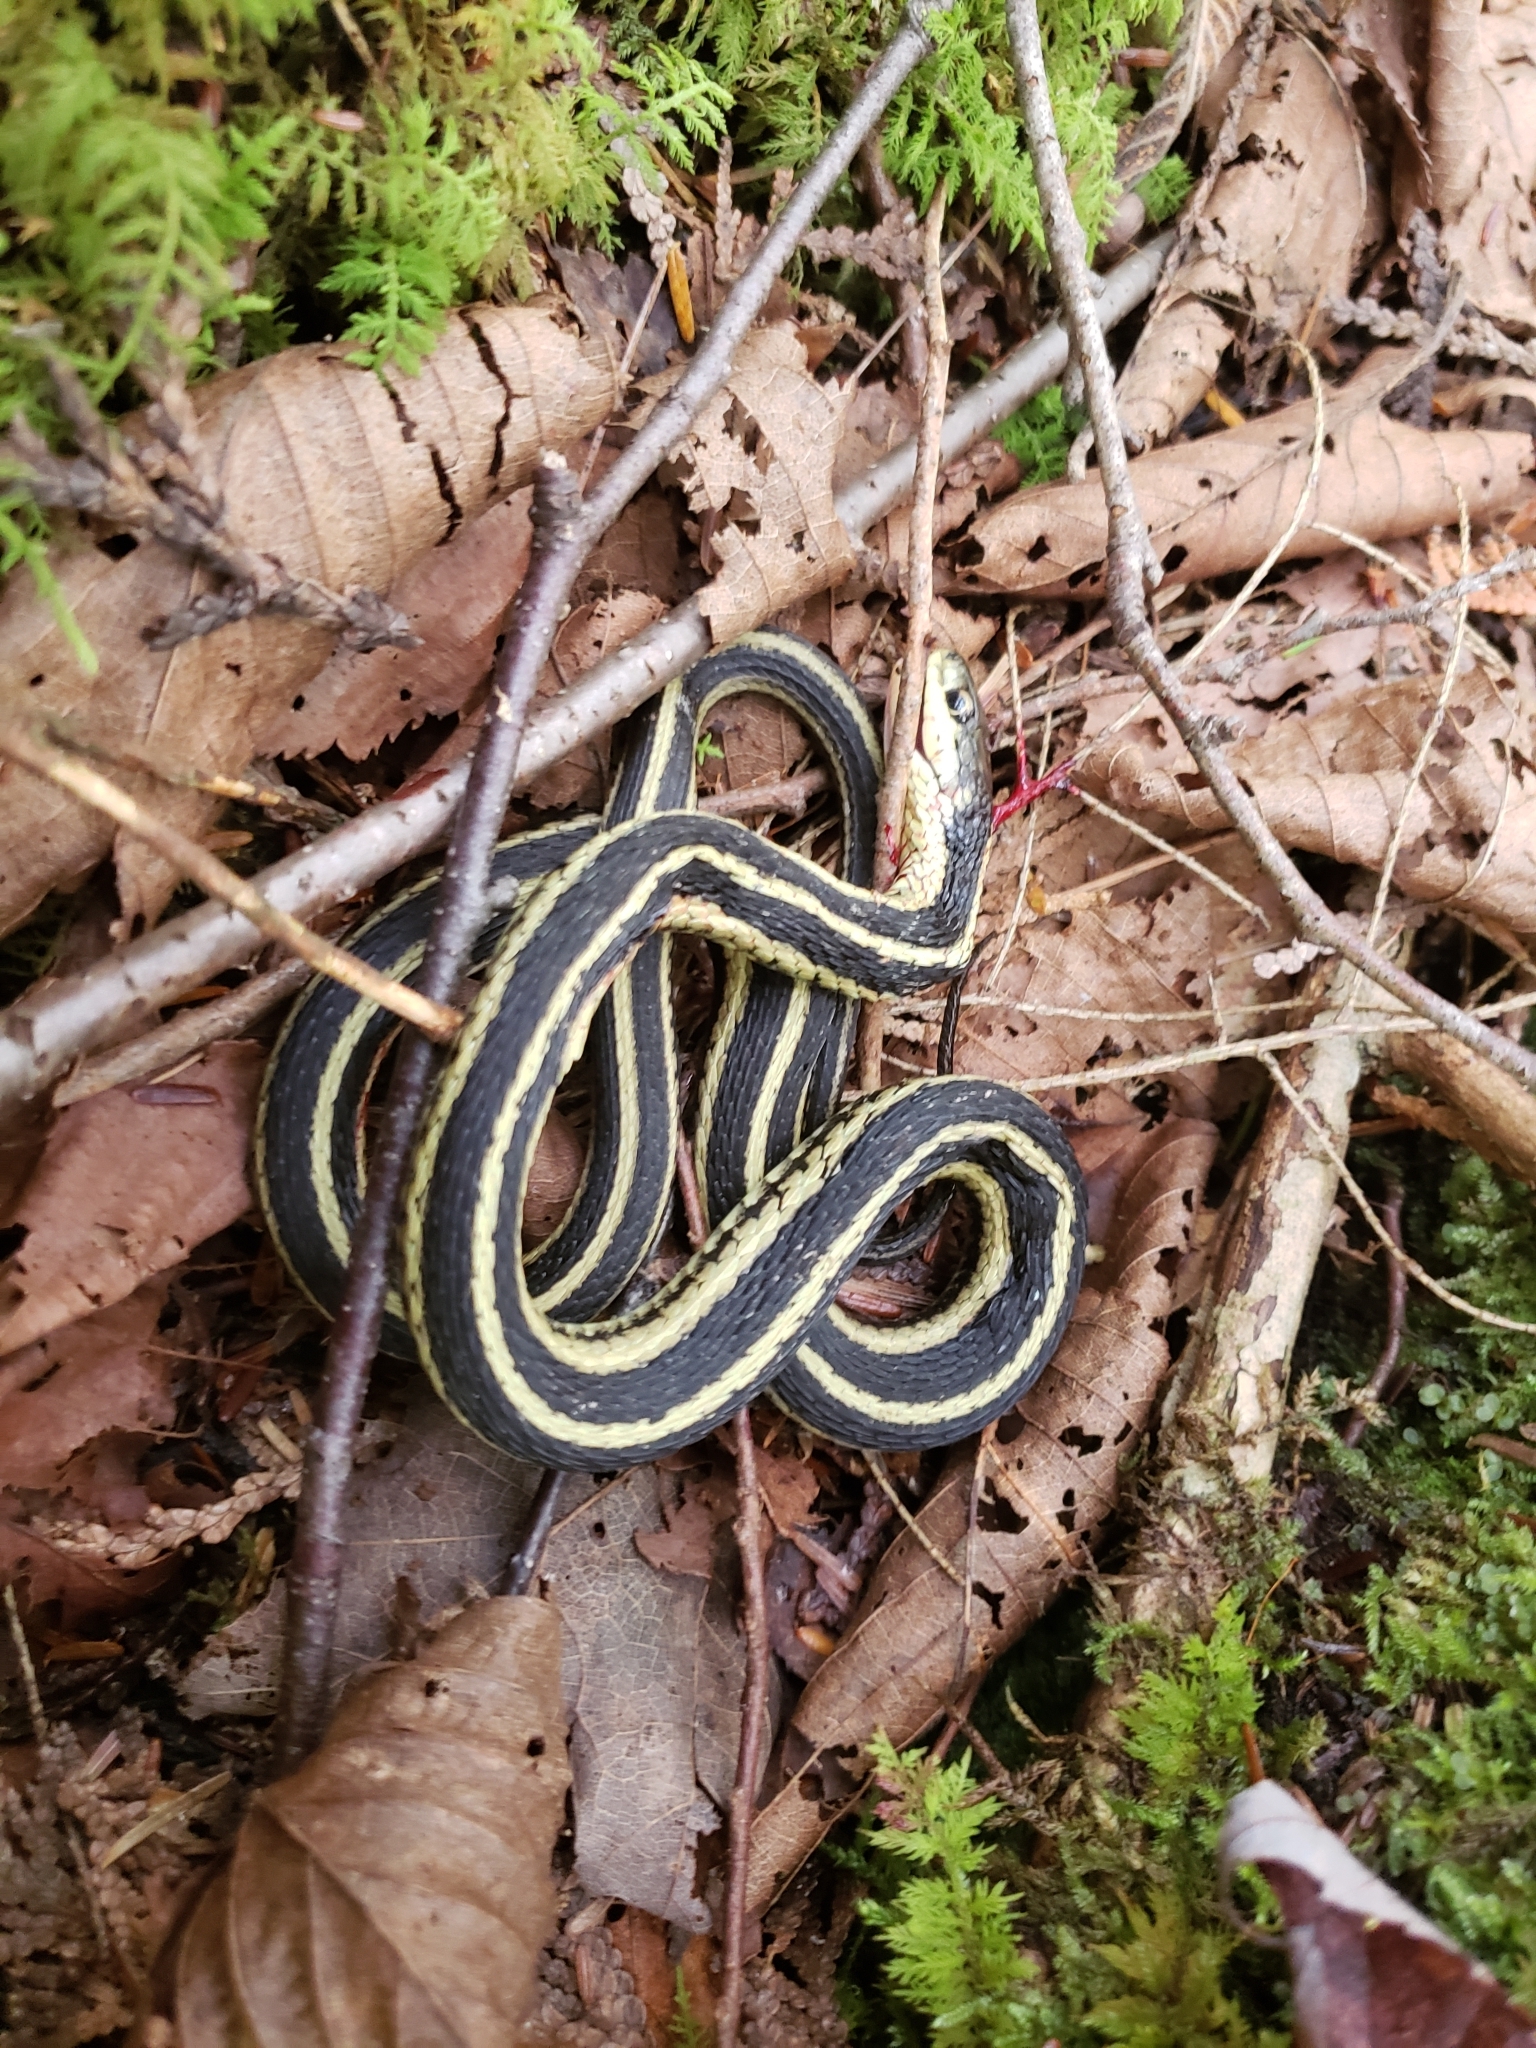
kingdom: Animalia
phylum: Chordata
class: Squamata
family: Colubridae
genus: Thamnophis
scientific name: Thamnophis sirtalis
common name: Common garter snake
